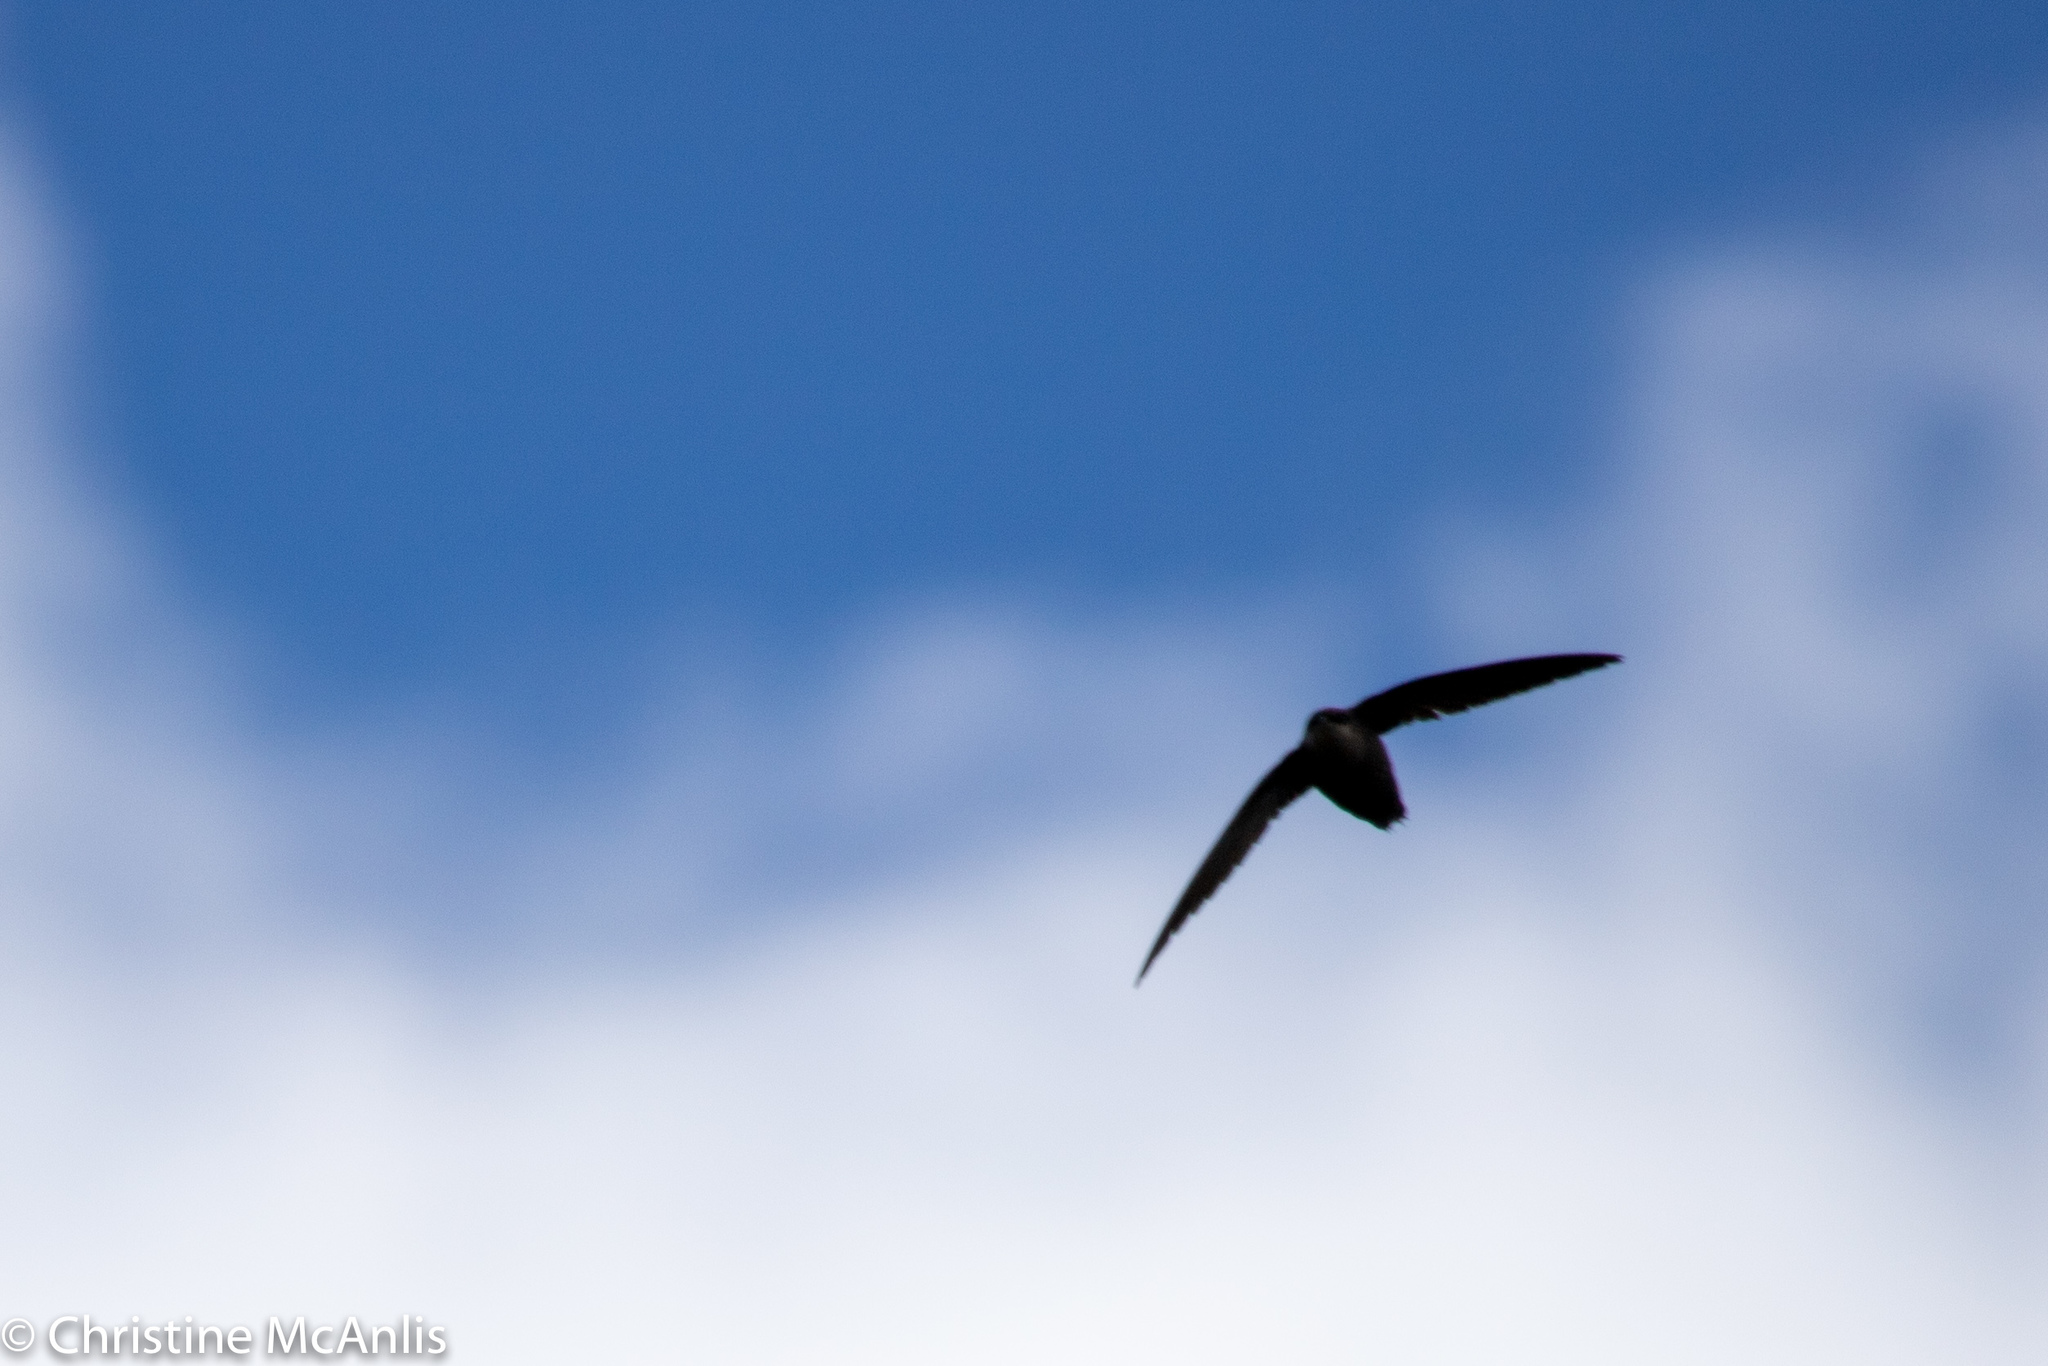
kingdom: Animalia
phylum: Chordata
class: Aves
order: Apodiformes
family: Apodidae
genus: Chaetura
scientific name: Chaetura pelagica
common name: Chimney swift
